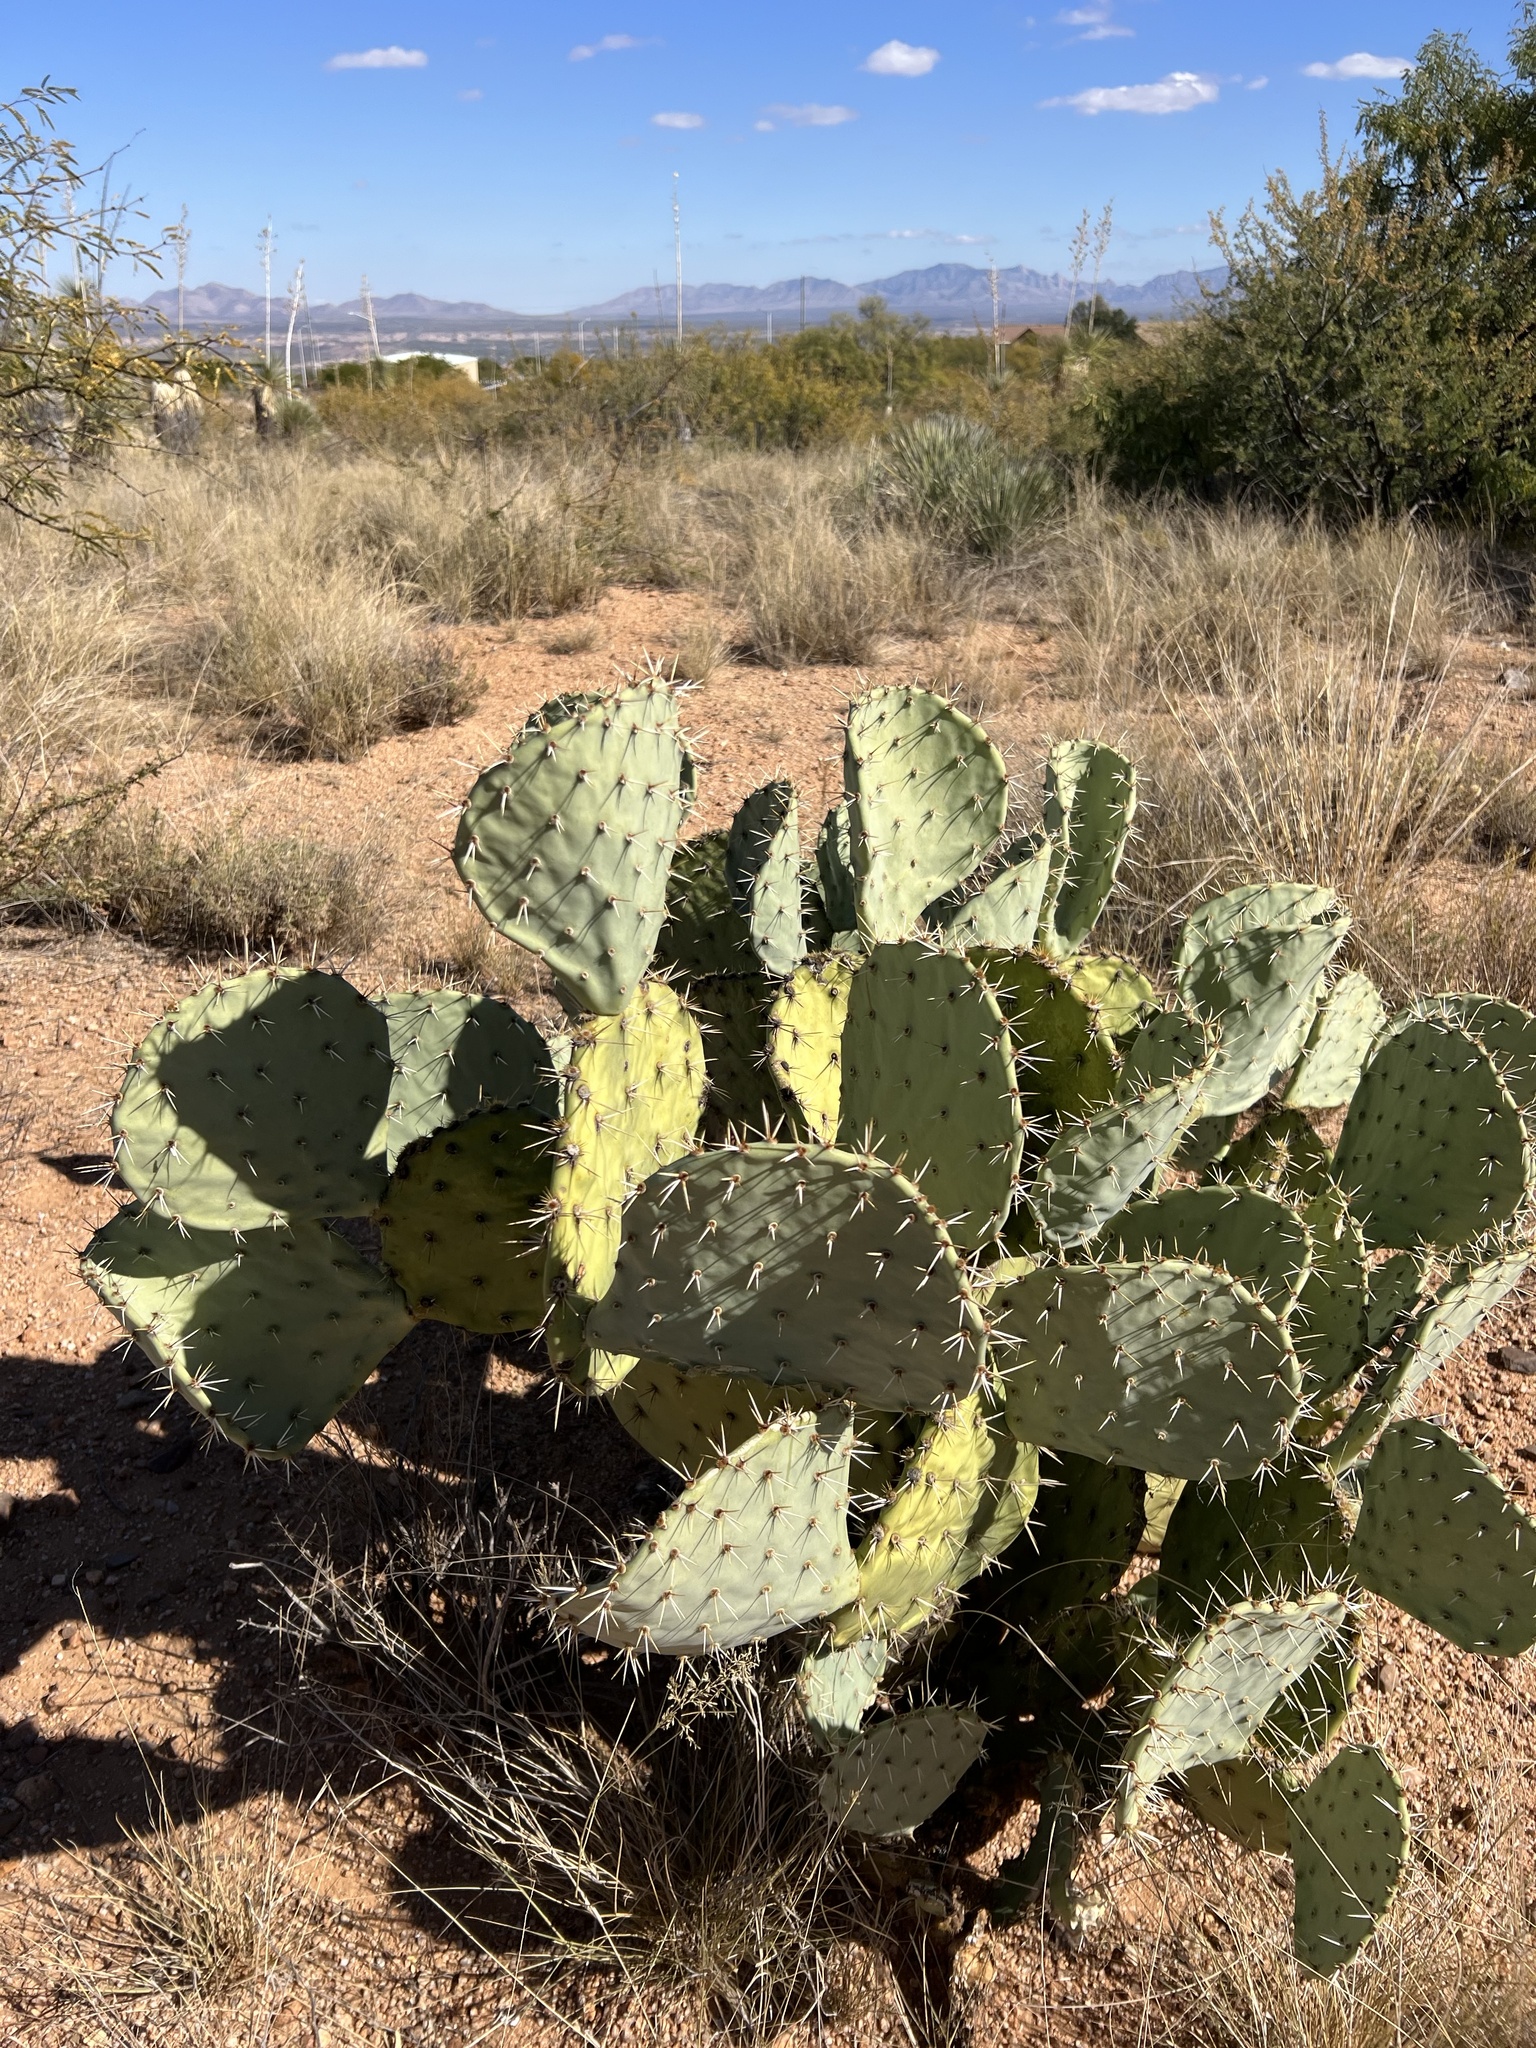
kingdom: Plantae
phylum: Tracheophyta
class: Magnoliopsida
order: Caryophyllales
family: Cactaceae
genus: Opuntia
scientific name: Opuntia engelmannii
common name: Cactus-apple
